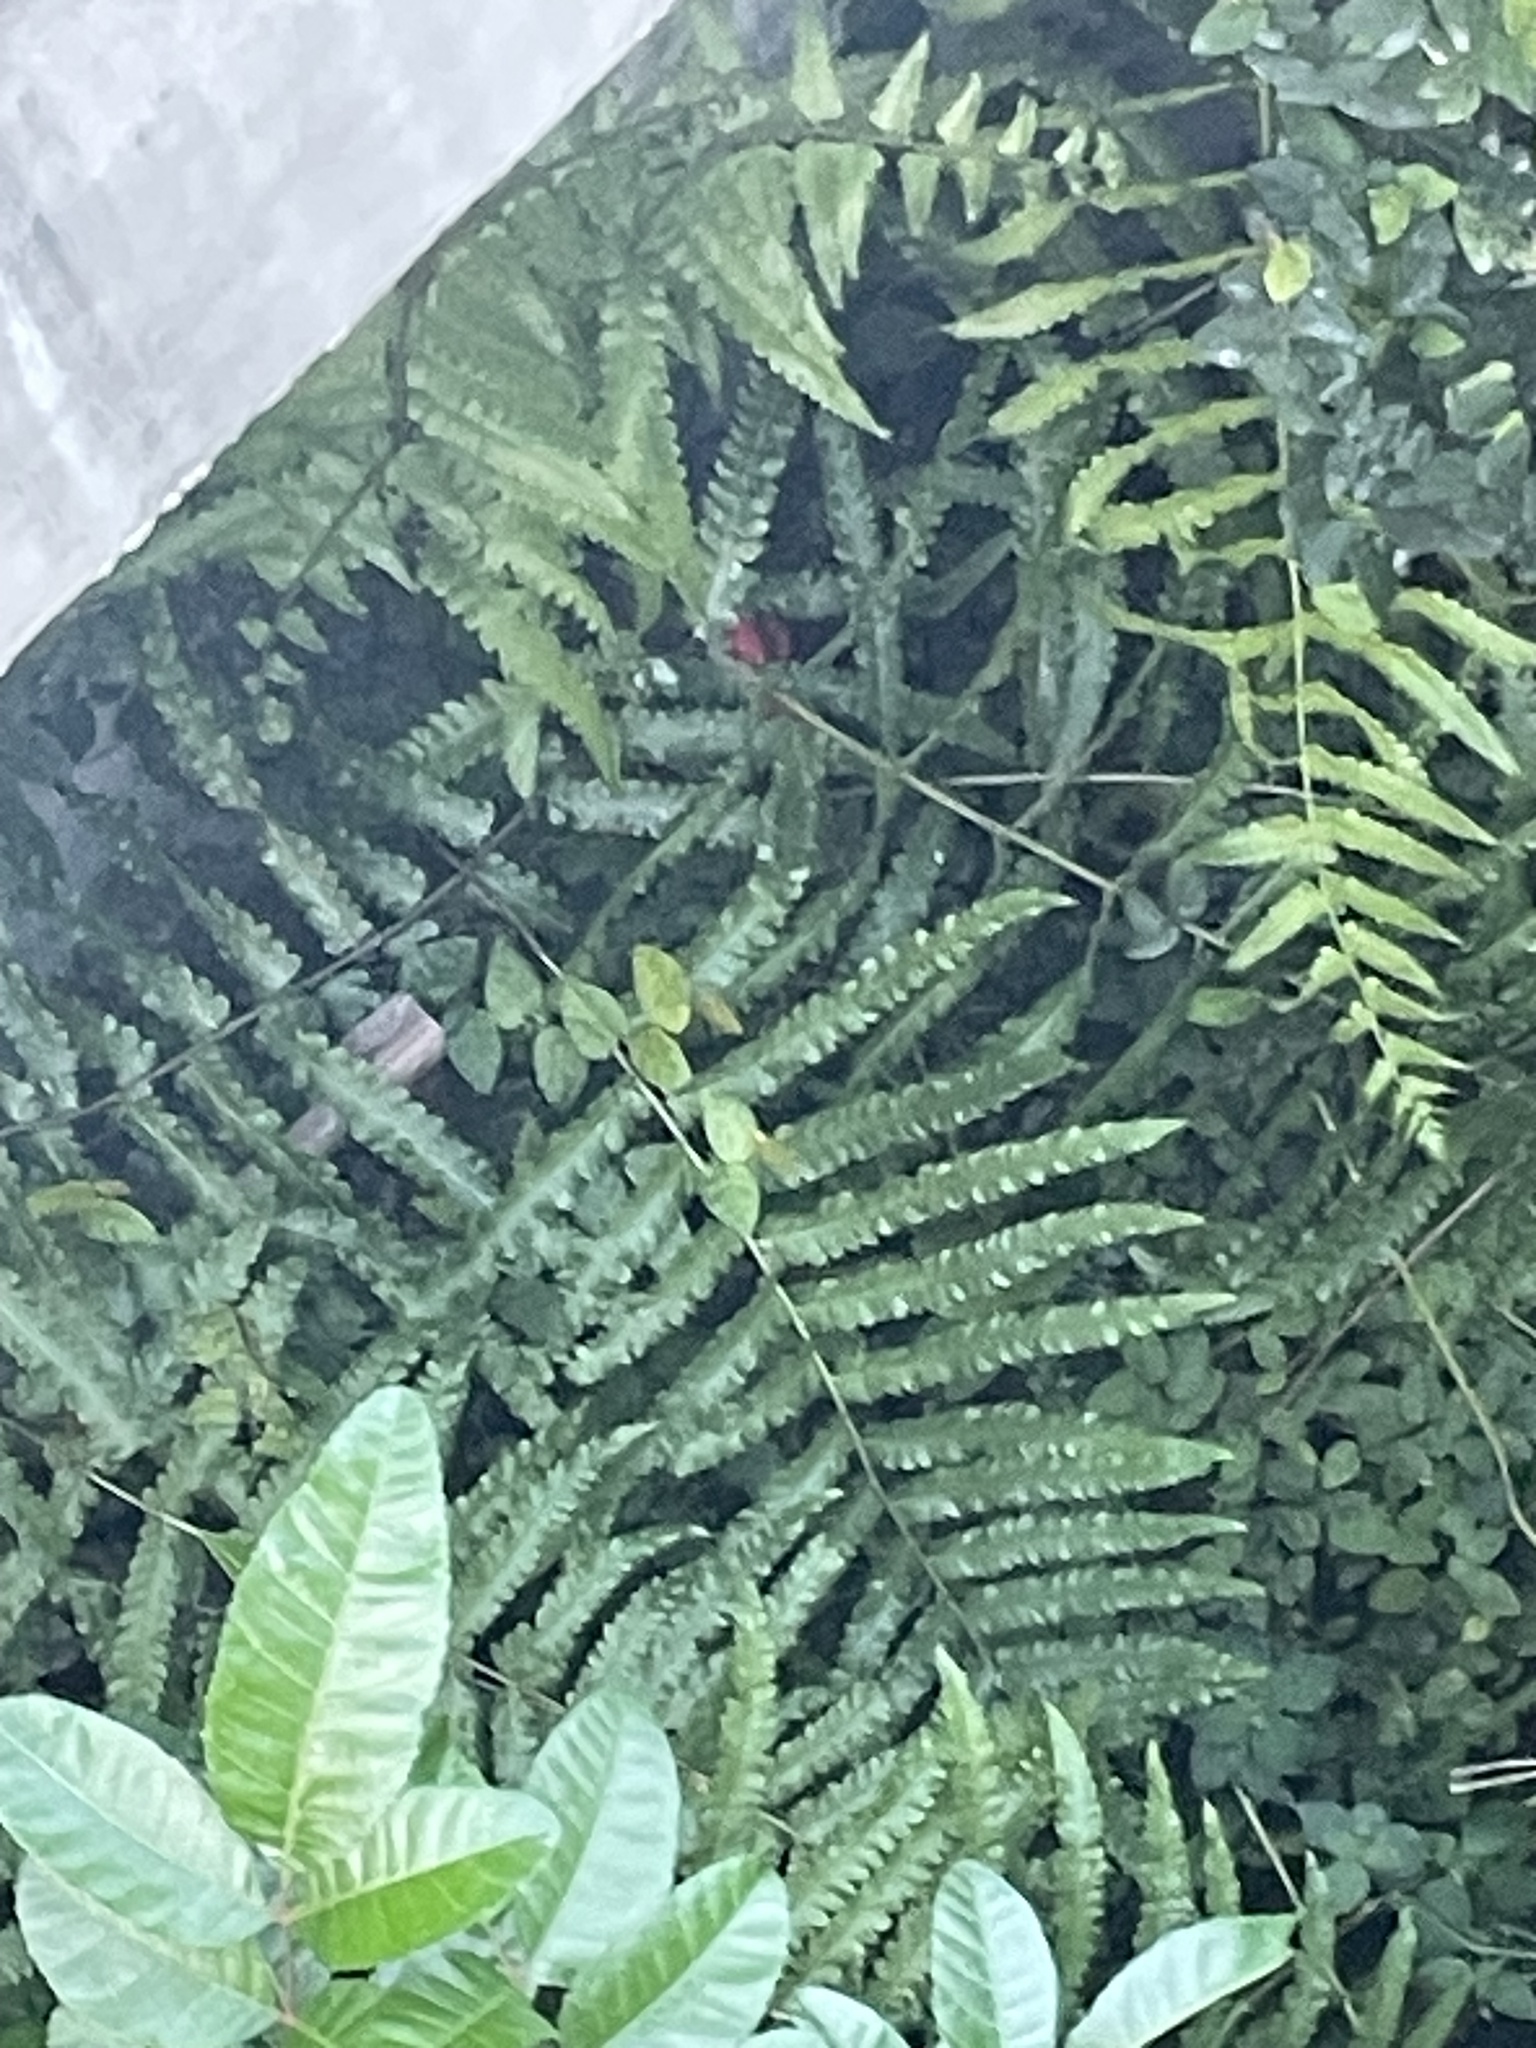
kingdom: Plantae
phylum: Tracheophyta
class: Polypodiopsida
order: Polypodiales
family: Thelypteridaceae
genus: Cyclosorus
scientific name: Cyclosorus interruptus
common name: Neke fern
